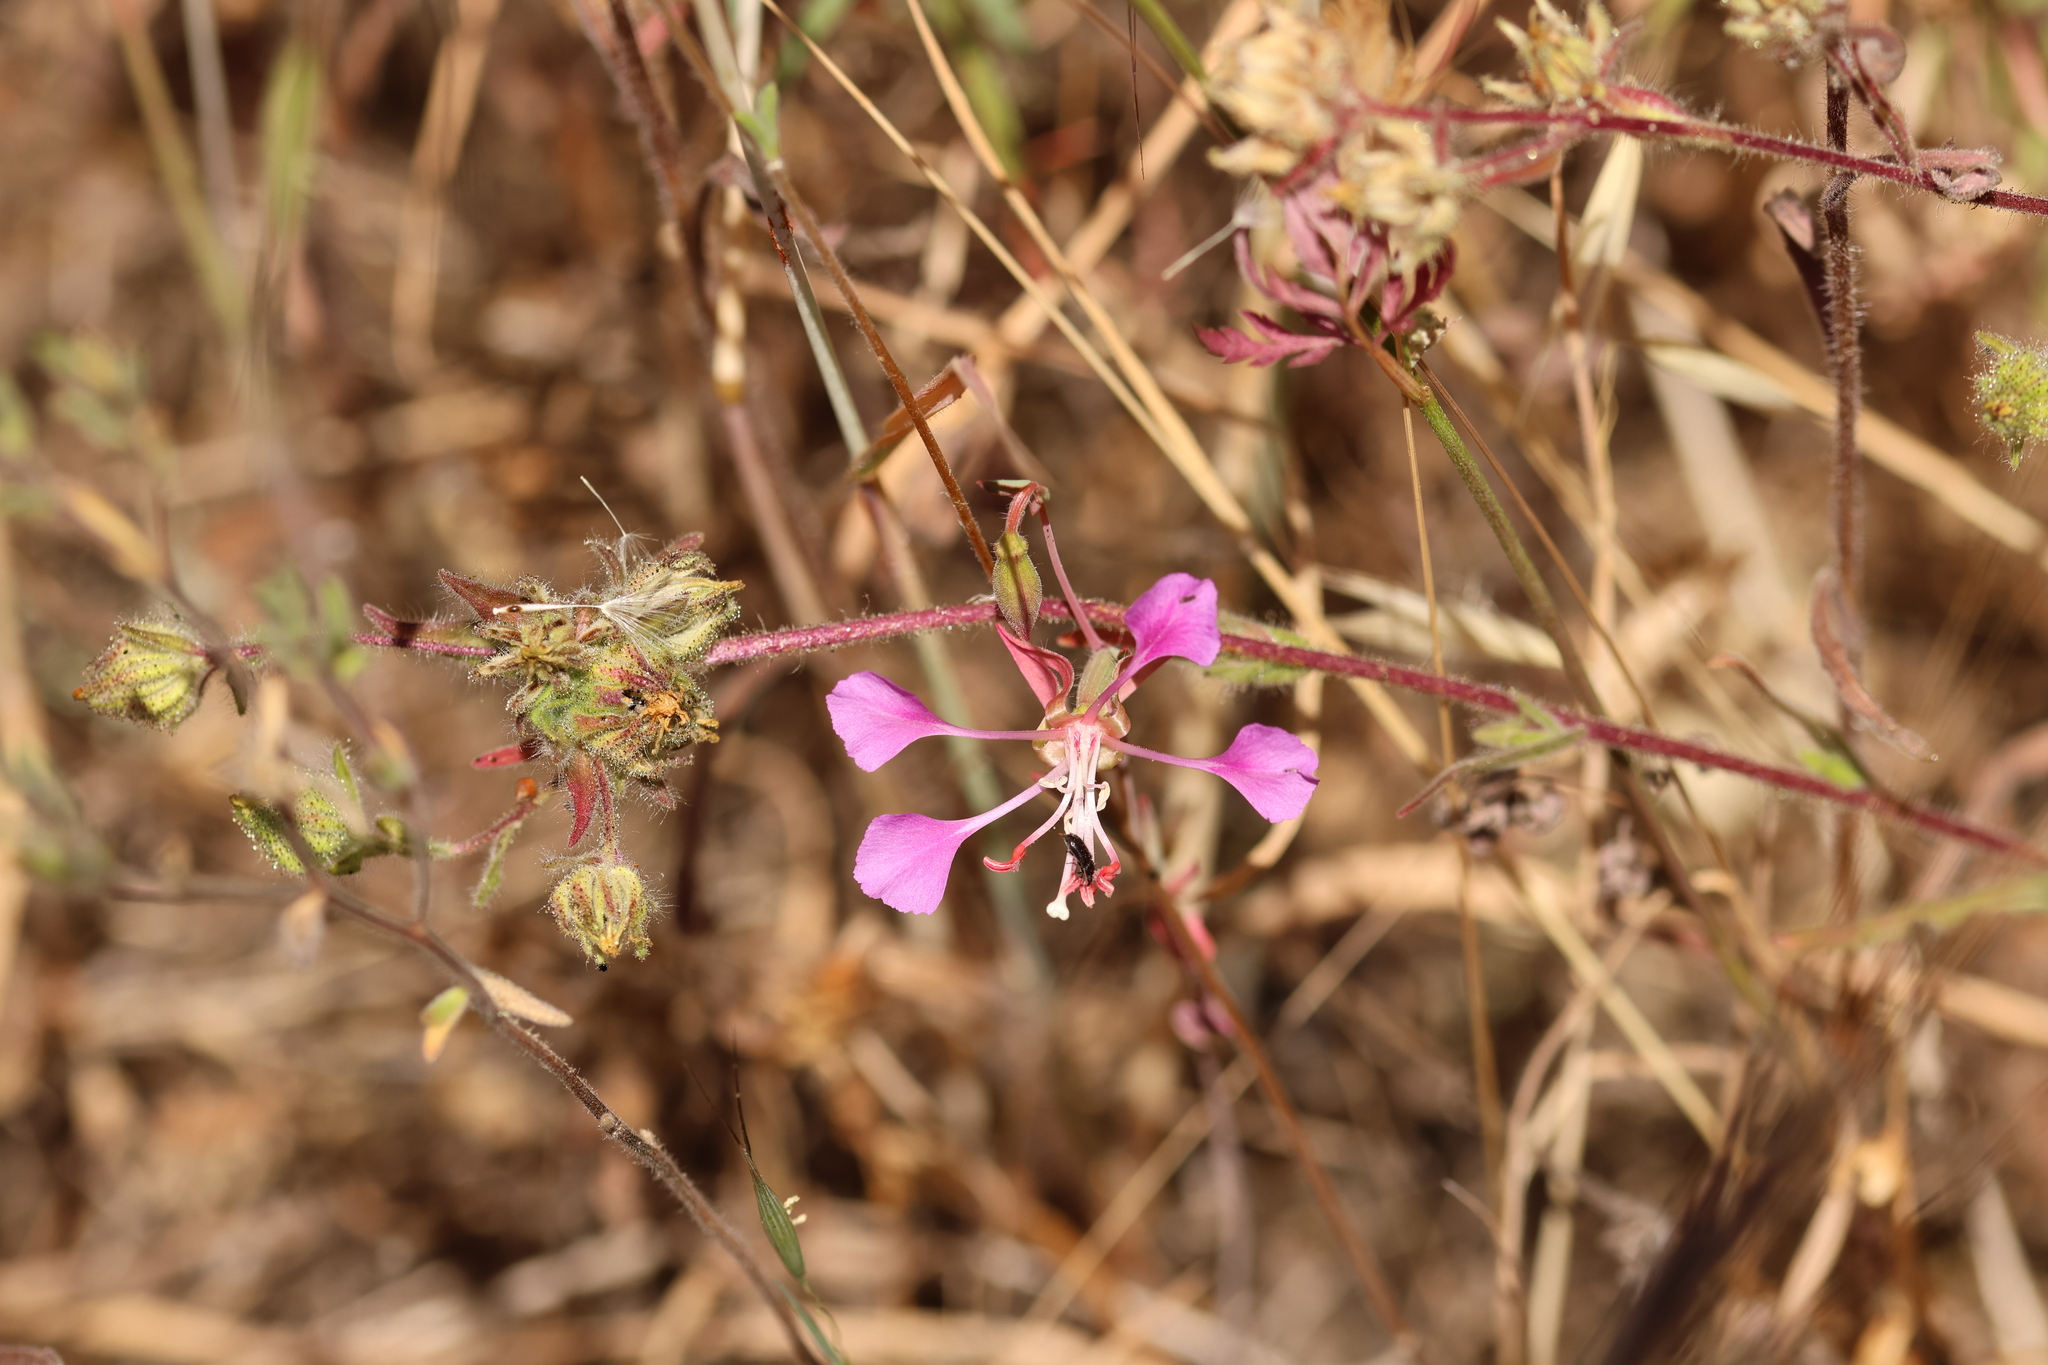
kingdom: Plantae
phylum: Tracheophyta
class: Magnoliopsida
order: Myrtales
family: Onagraceae
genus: Clarkia
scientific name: Clarkia unguiculata
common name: Clarkia
